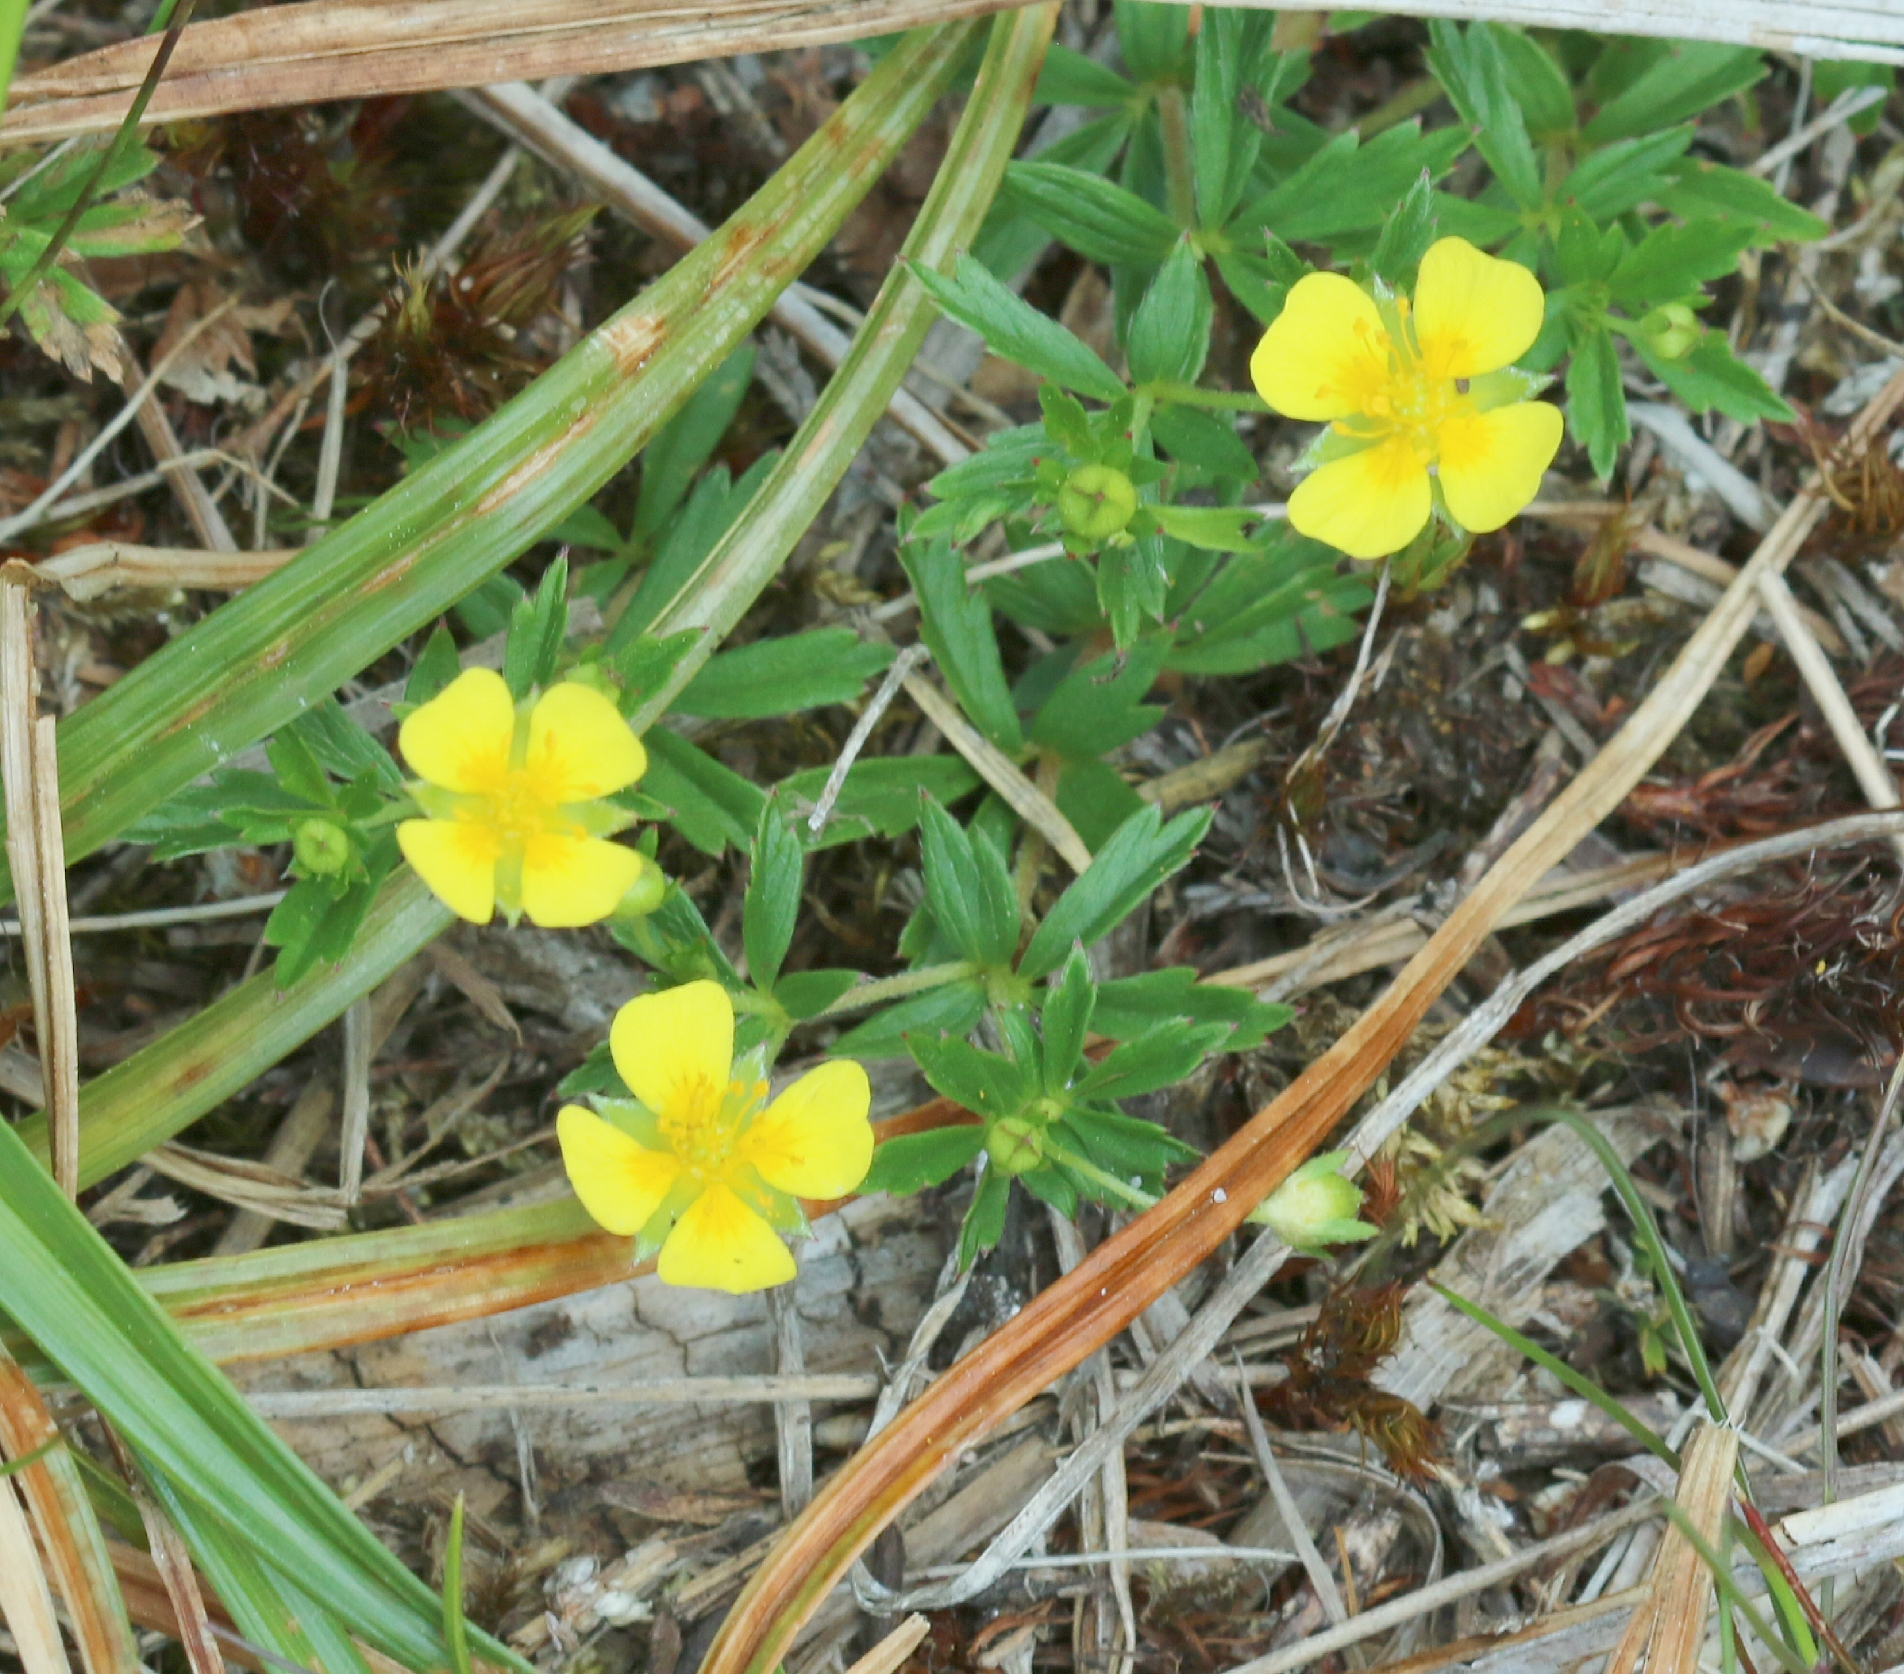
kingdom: Plantae
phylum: Tracheophyta
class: Magnoliopsida
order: Rosales
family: Rosaceae
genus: Potentilla
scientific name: Potentilla erecta
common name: Tormentil
